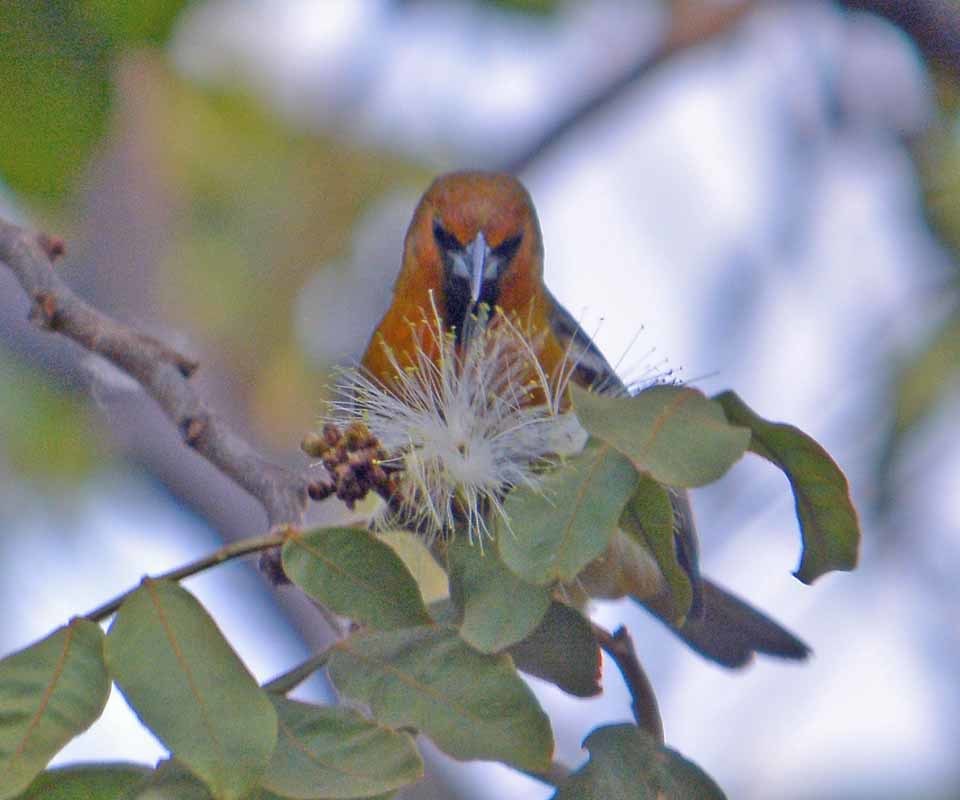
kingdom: Animalia
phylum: Chordata
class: Aves
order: Passeriformes
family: Icteridae
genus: Icterus
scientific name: Icterus pustulatus
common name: Streak-backed oriole
